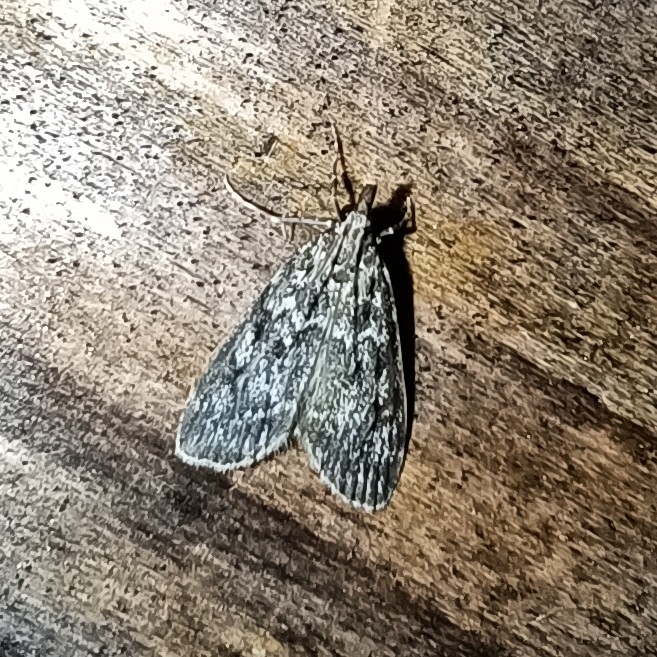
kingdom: Animalia
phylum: Arthropoda
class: Insecta
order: Lepidoptera
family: Crambidae
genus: Eudonia
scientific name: Eudonia truncicolella
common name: Ground-moss grey
